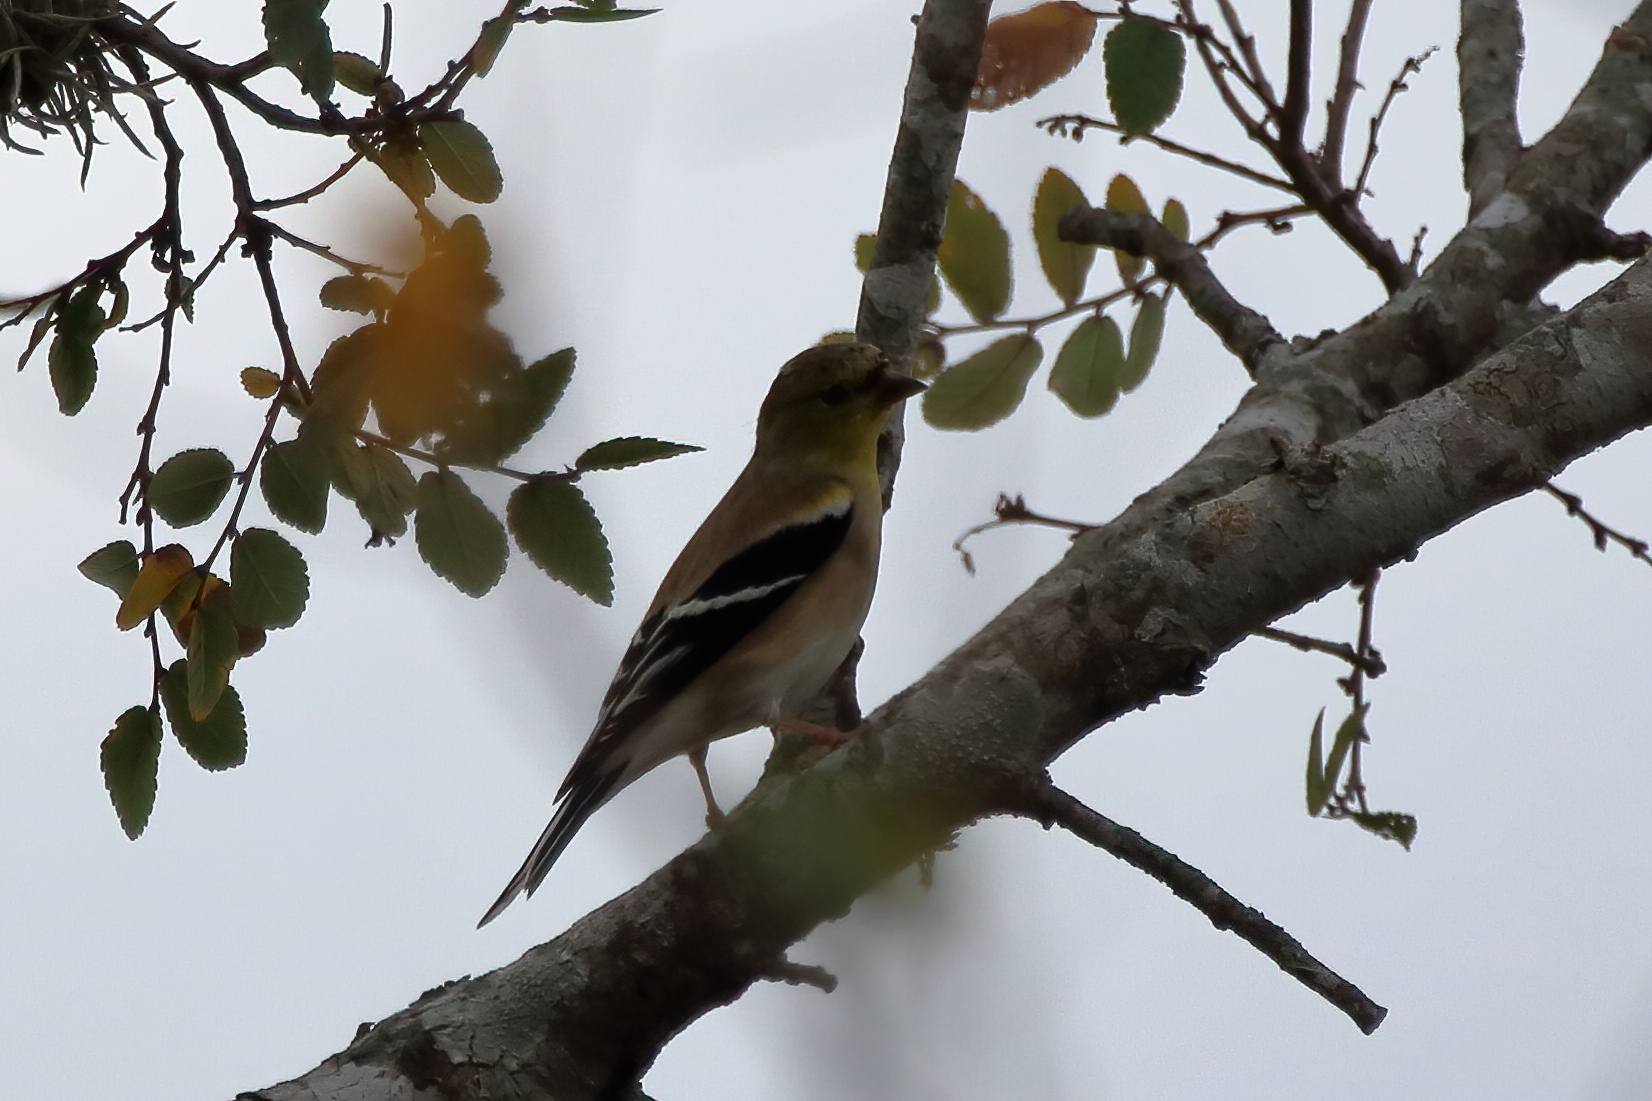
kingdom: Animalia
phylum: Chordata
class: Aves
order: Passeriformes
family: Fringillidae
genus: Spinus
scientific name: Spinus tristis
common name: American goldfinch
